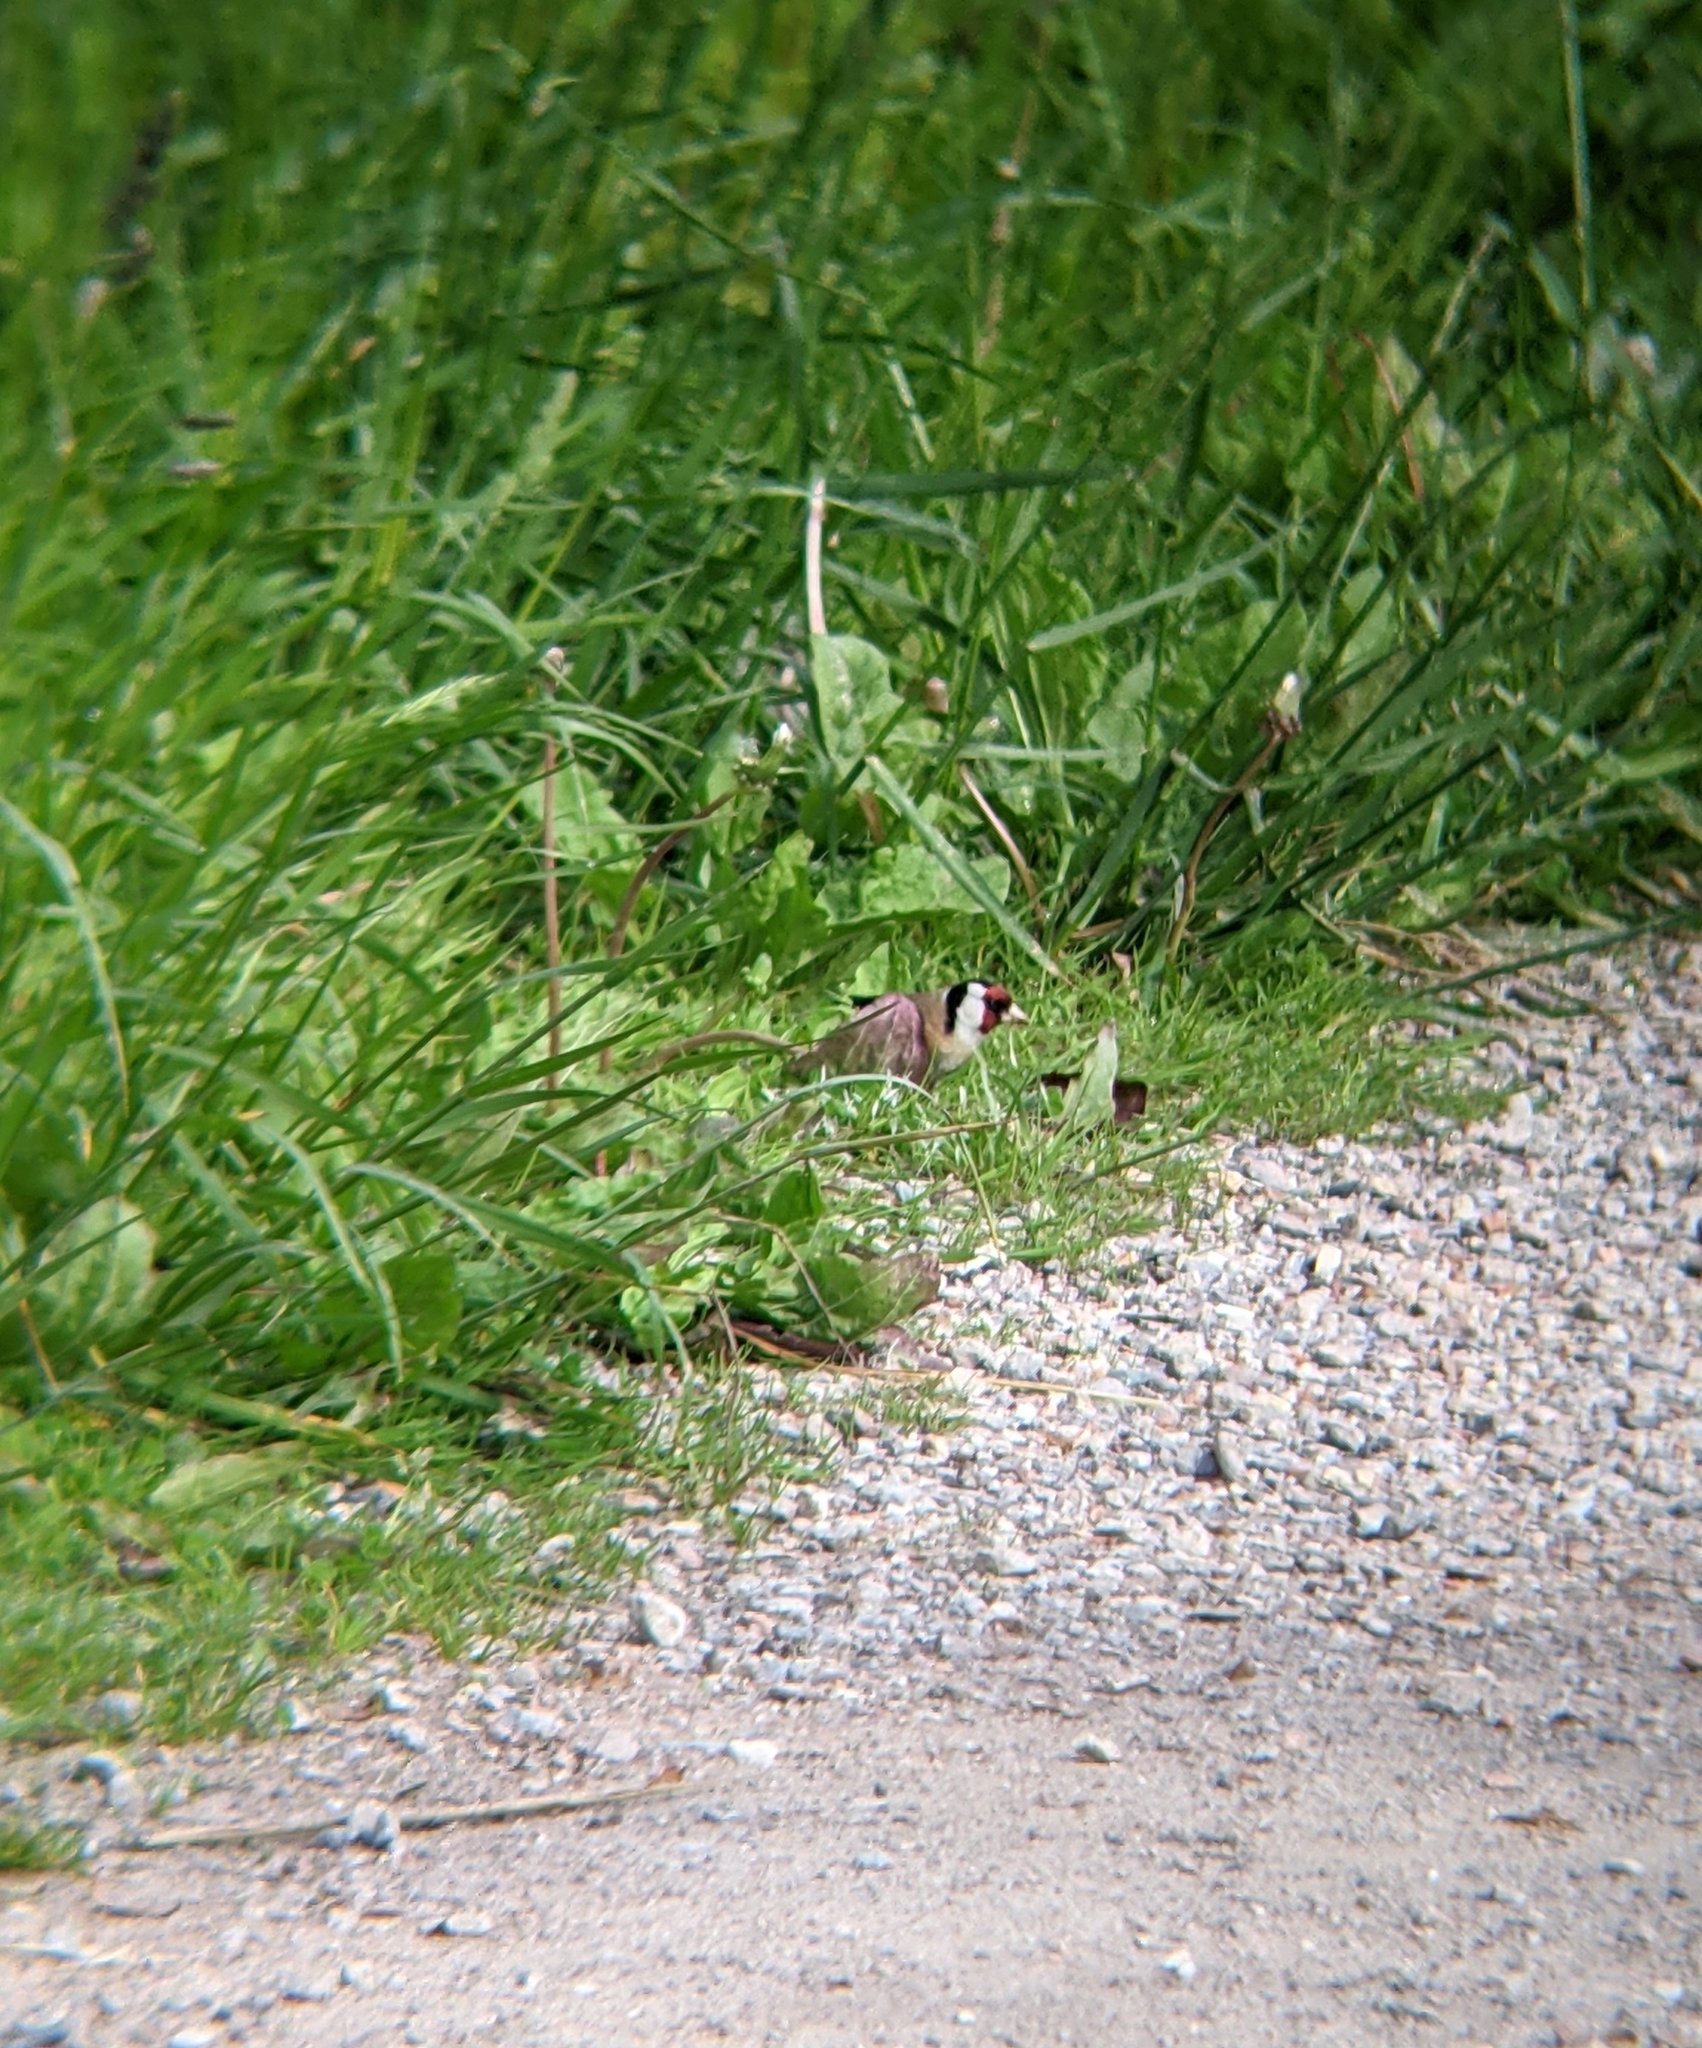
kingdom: Animalia
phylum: Chordata
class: Aves
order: Passeriformes
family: Fringillidae
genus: Carduelis
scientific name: Carduelis carduelis
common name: European goldfinch
